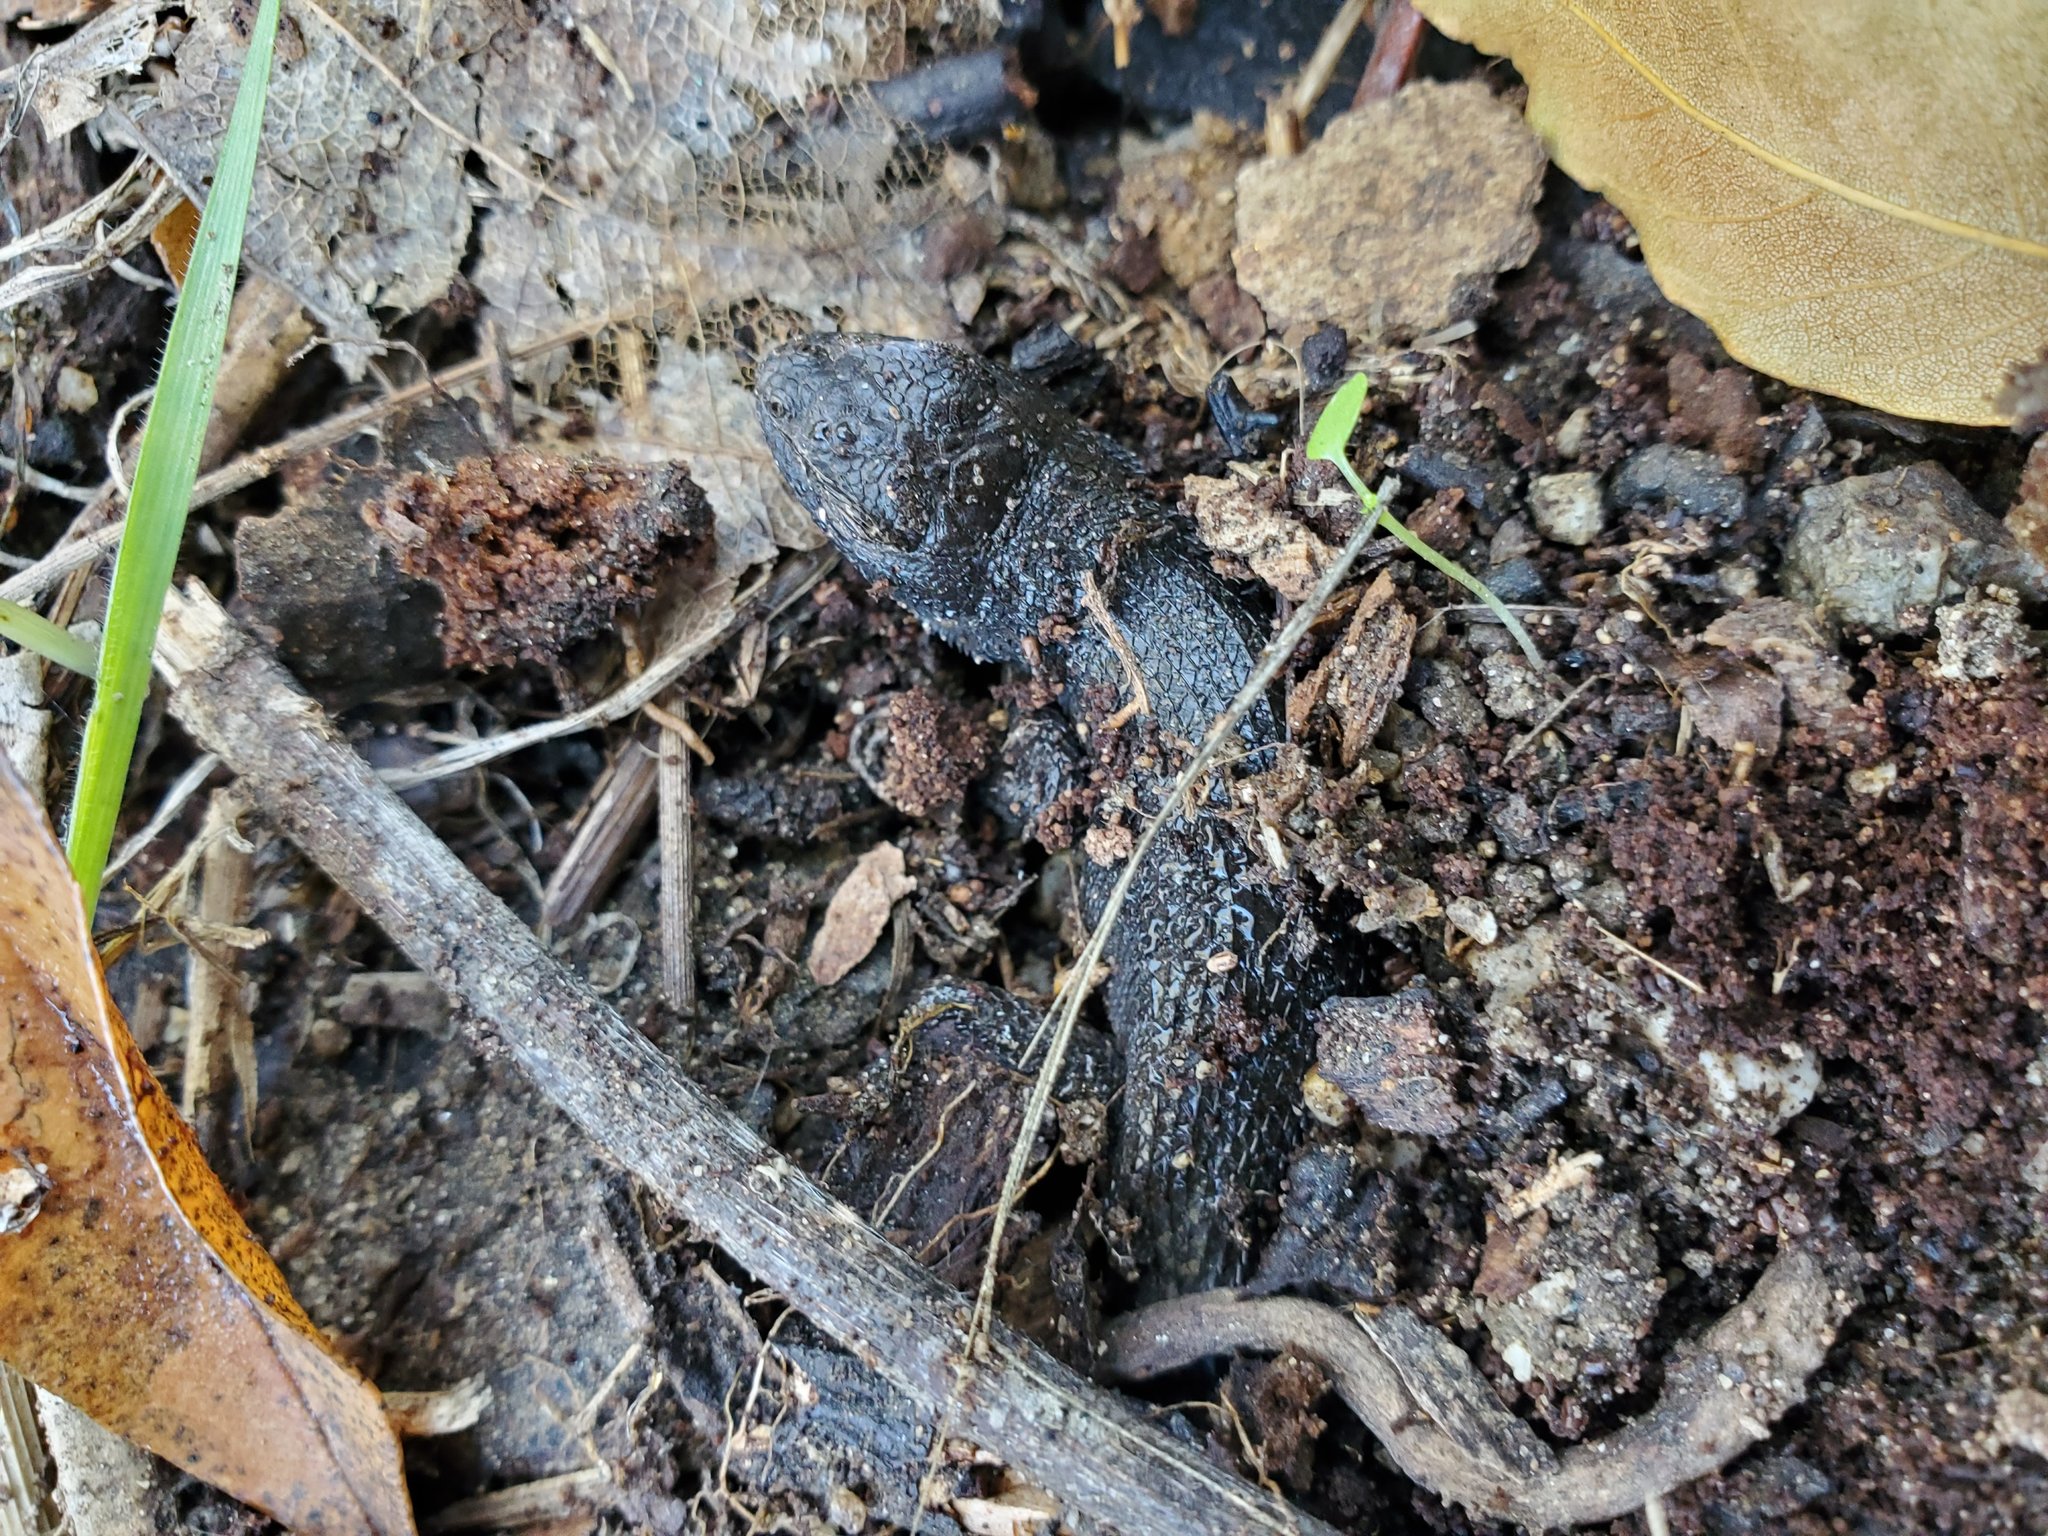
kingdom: Animalia
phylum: Chordata
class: Squamata
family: Phrynosomatidae
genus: Sceloporus
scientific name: Sceloporus occidentalis
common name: Western fence lizard
